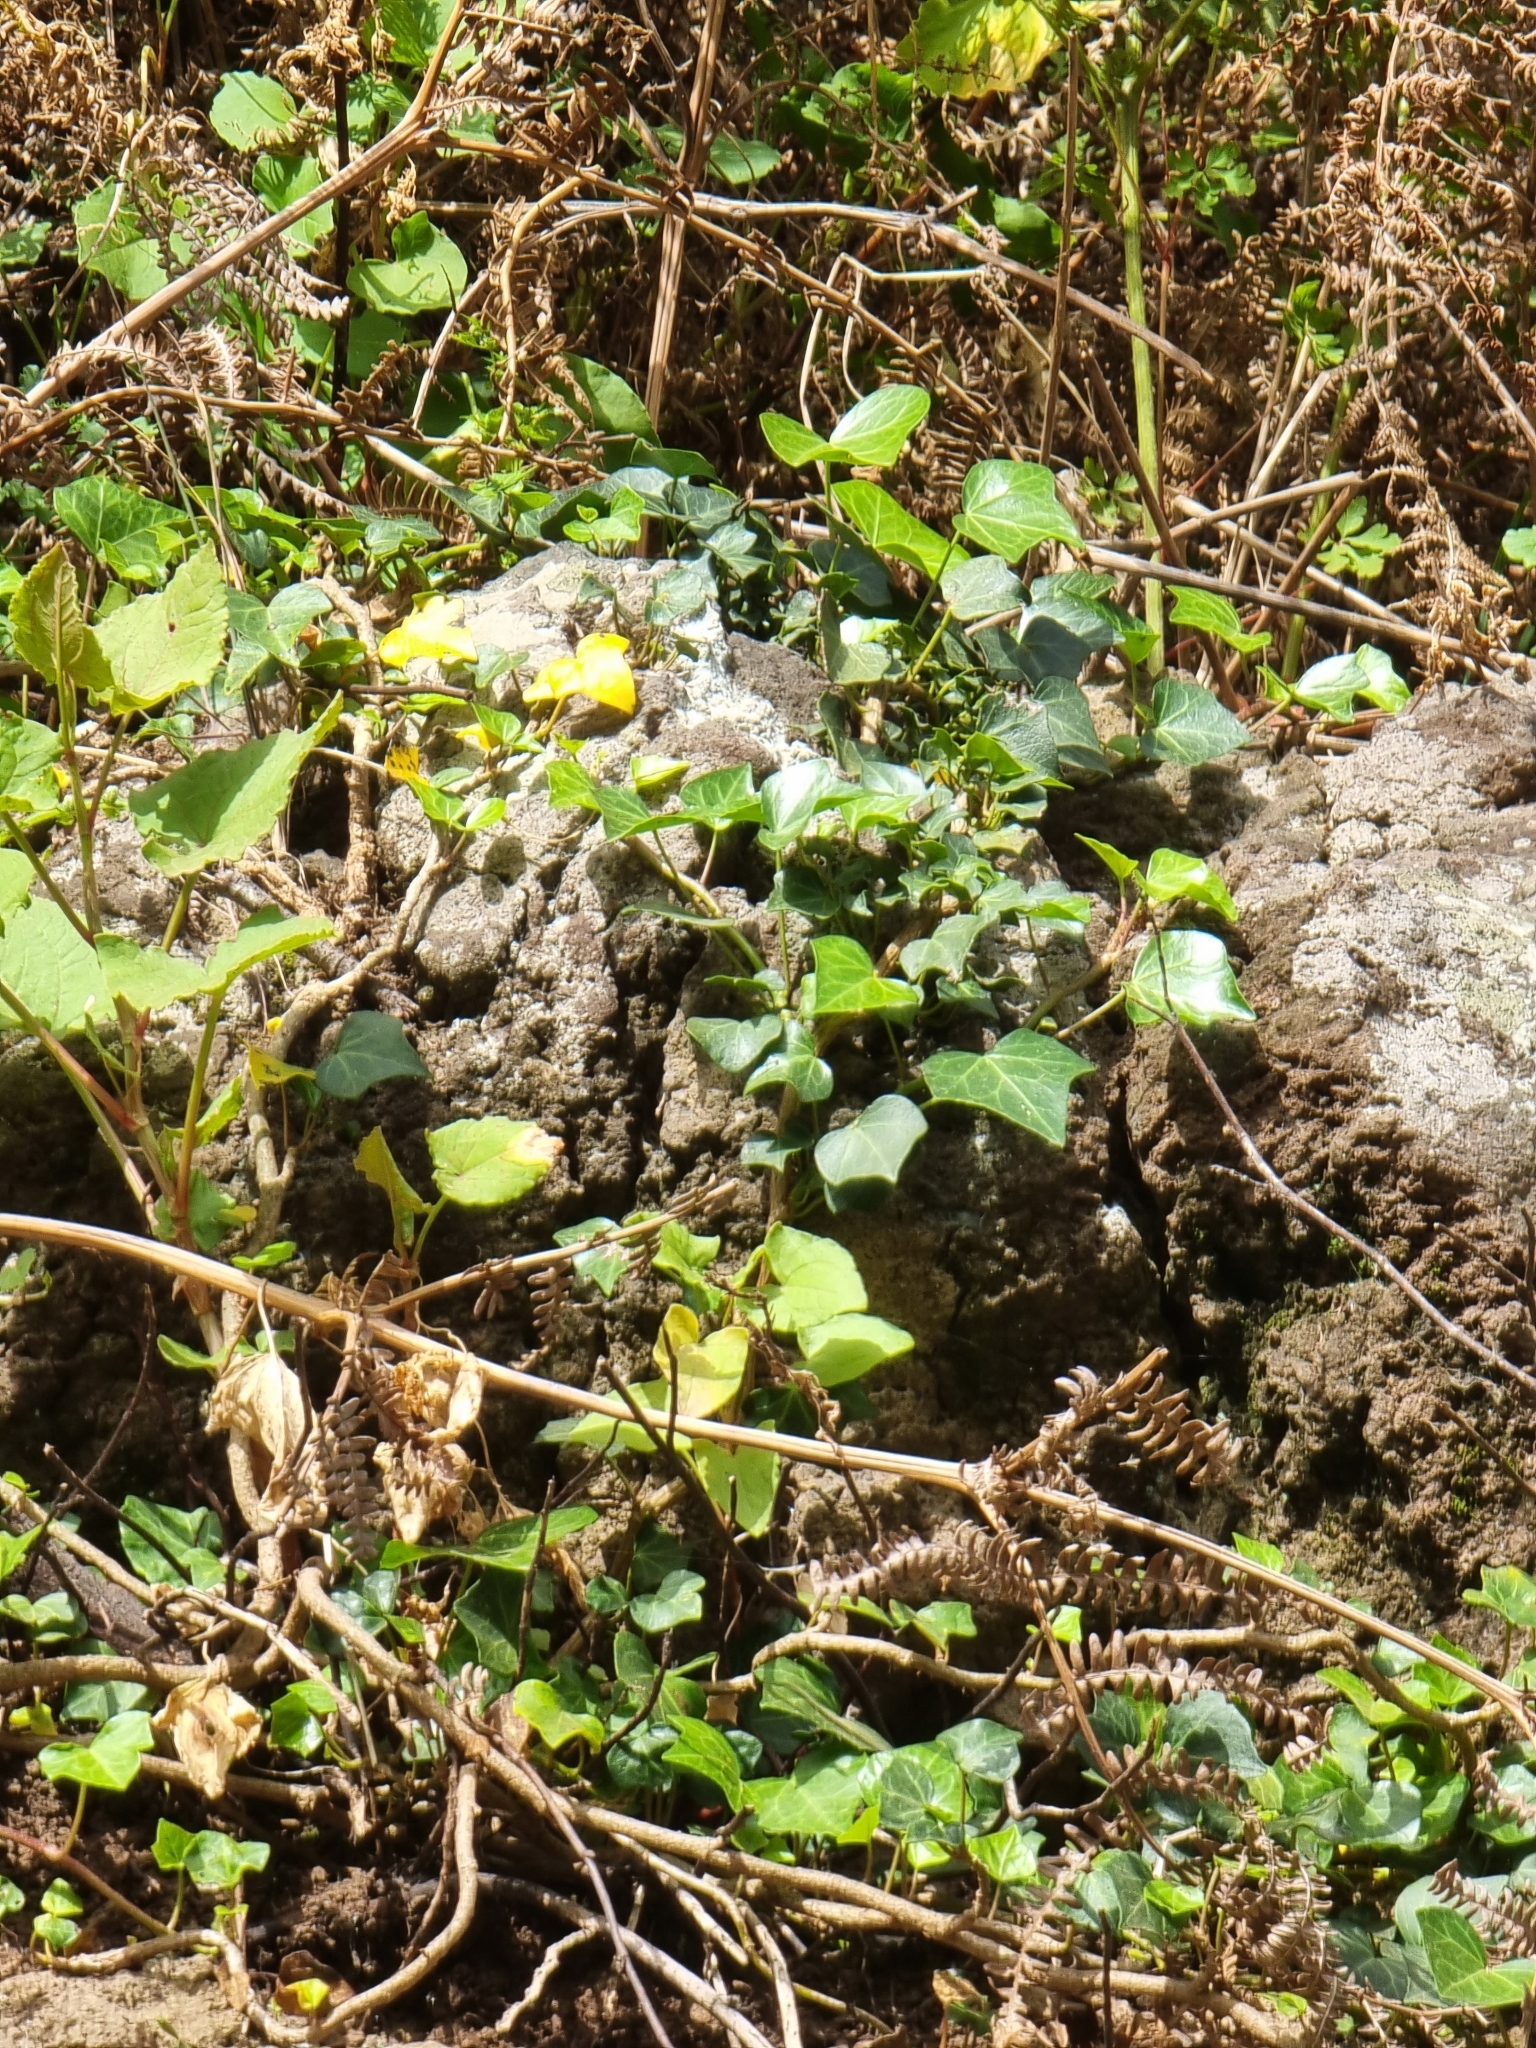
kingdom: Plantae
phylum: Tracheophyta
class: Magnoliopsida
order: Apiales
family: Araliaceae
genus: Hedera
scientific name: Hedera maderensis
